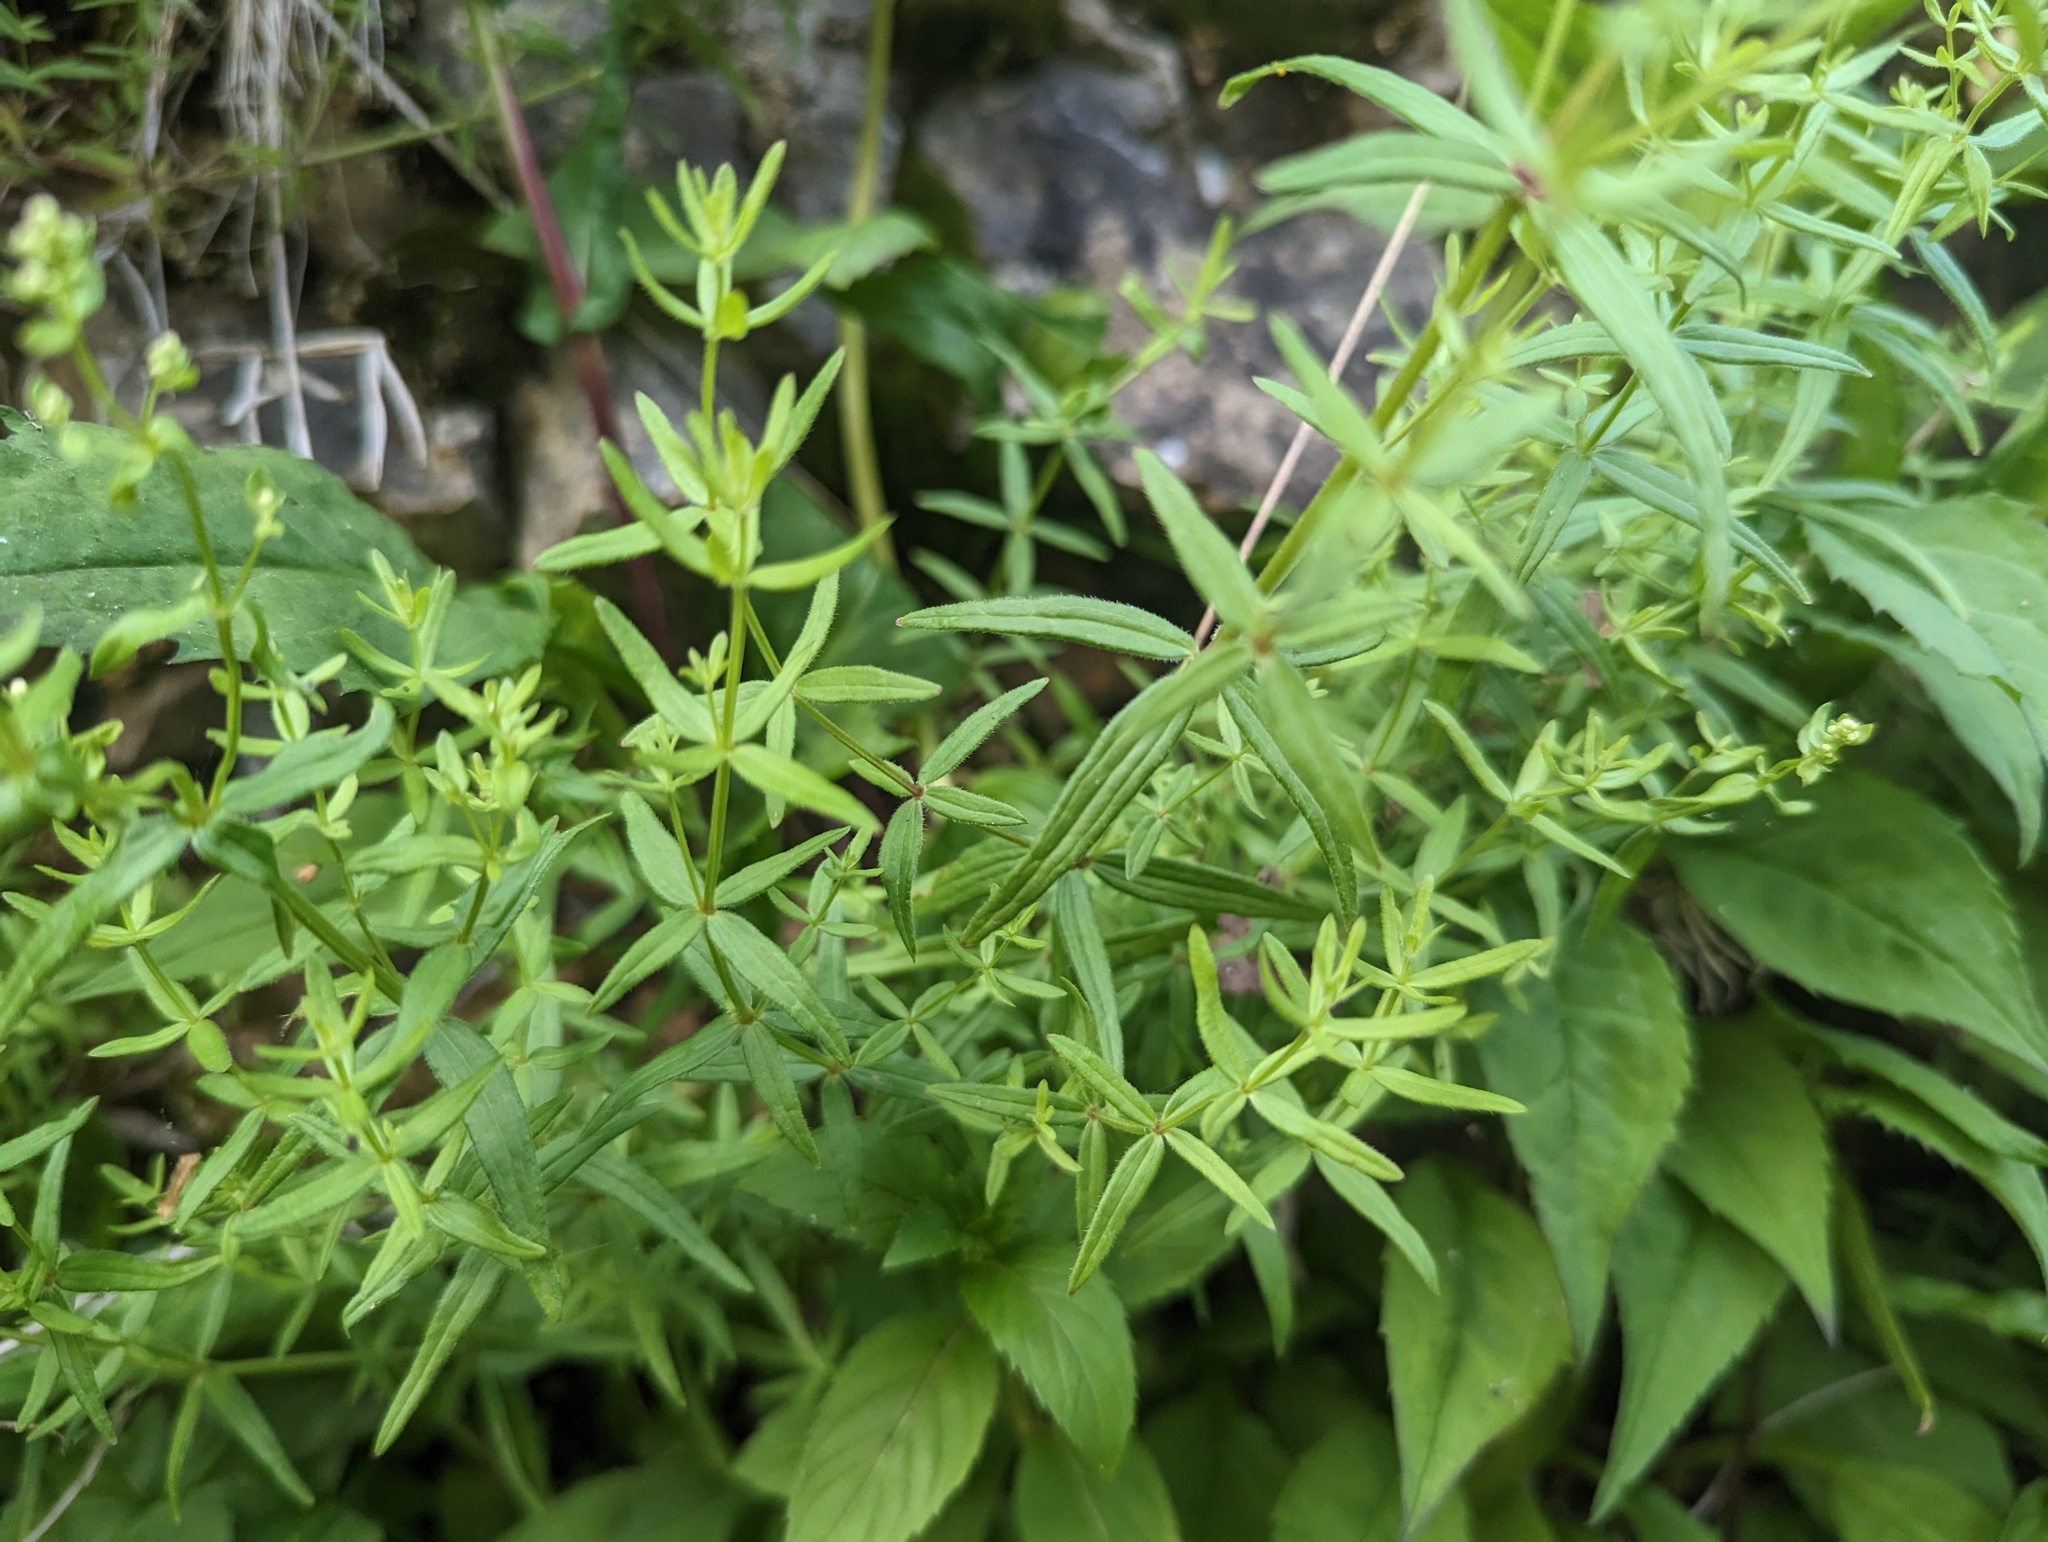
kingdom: Plantae
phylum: Tracheophyta
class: Magnoliopsida
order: Gentianales
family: Rubiaceae
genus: Galium
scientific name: Galium boreale
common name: Northern bedstraw
